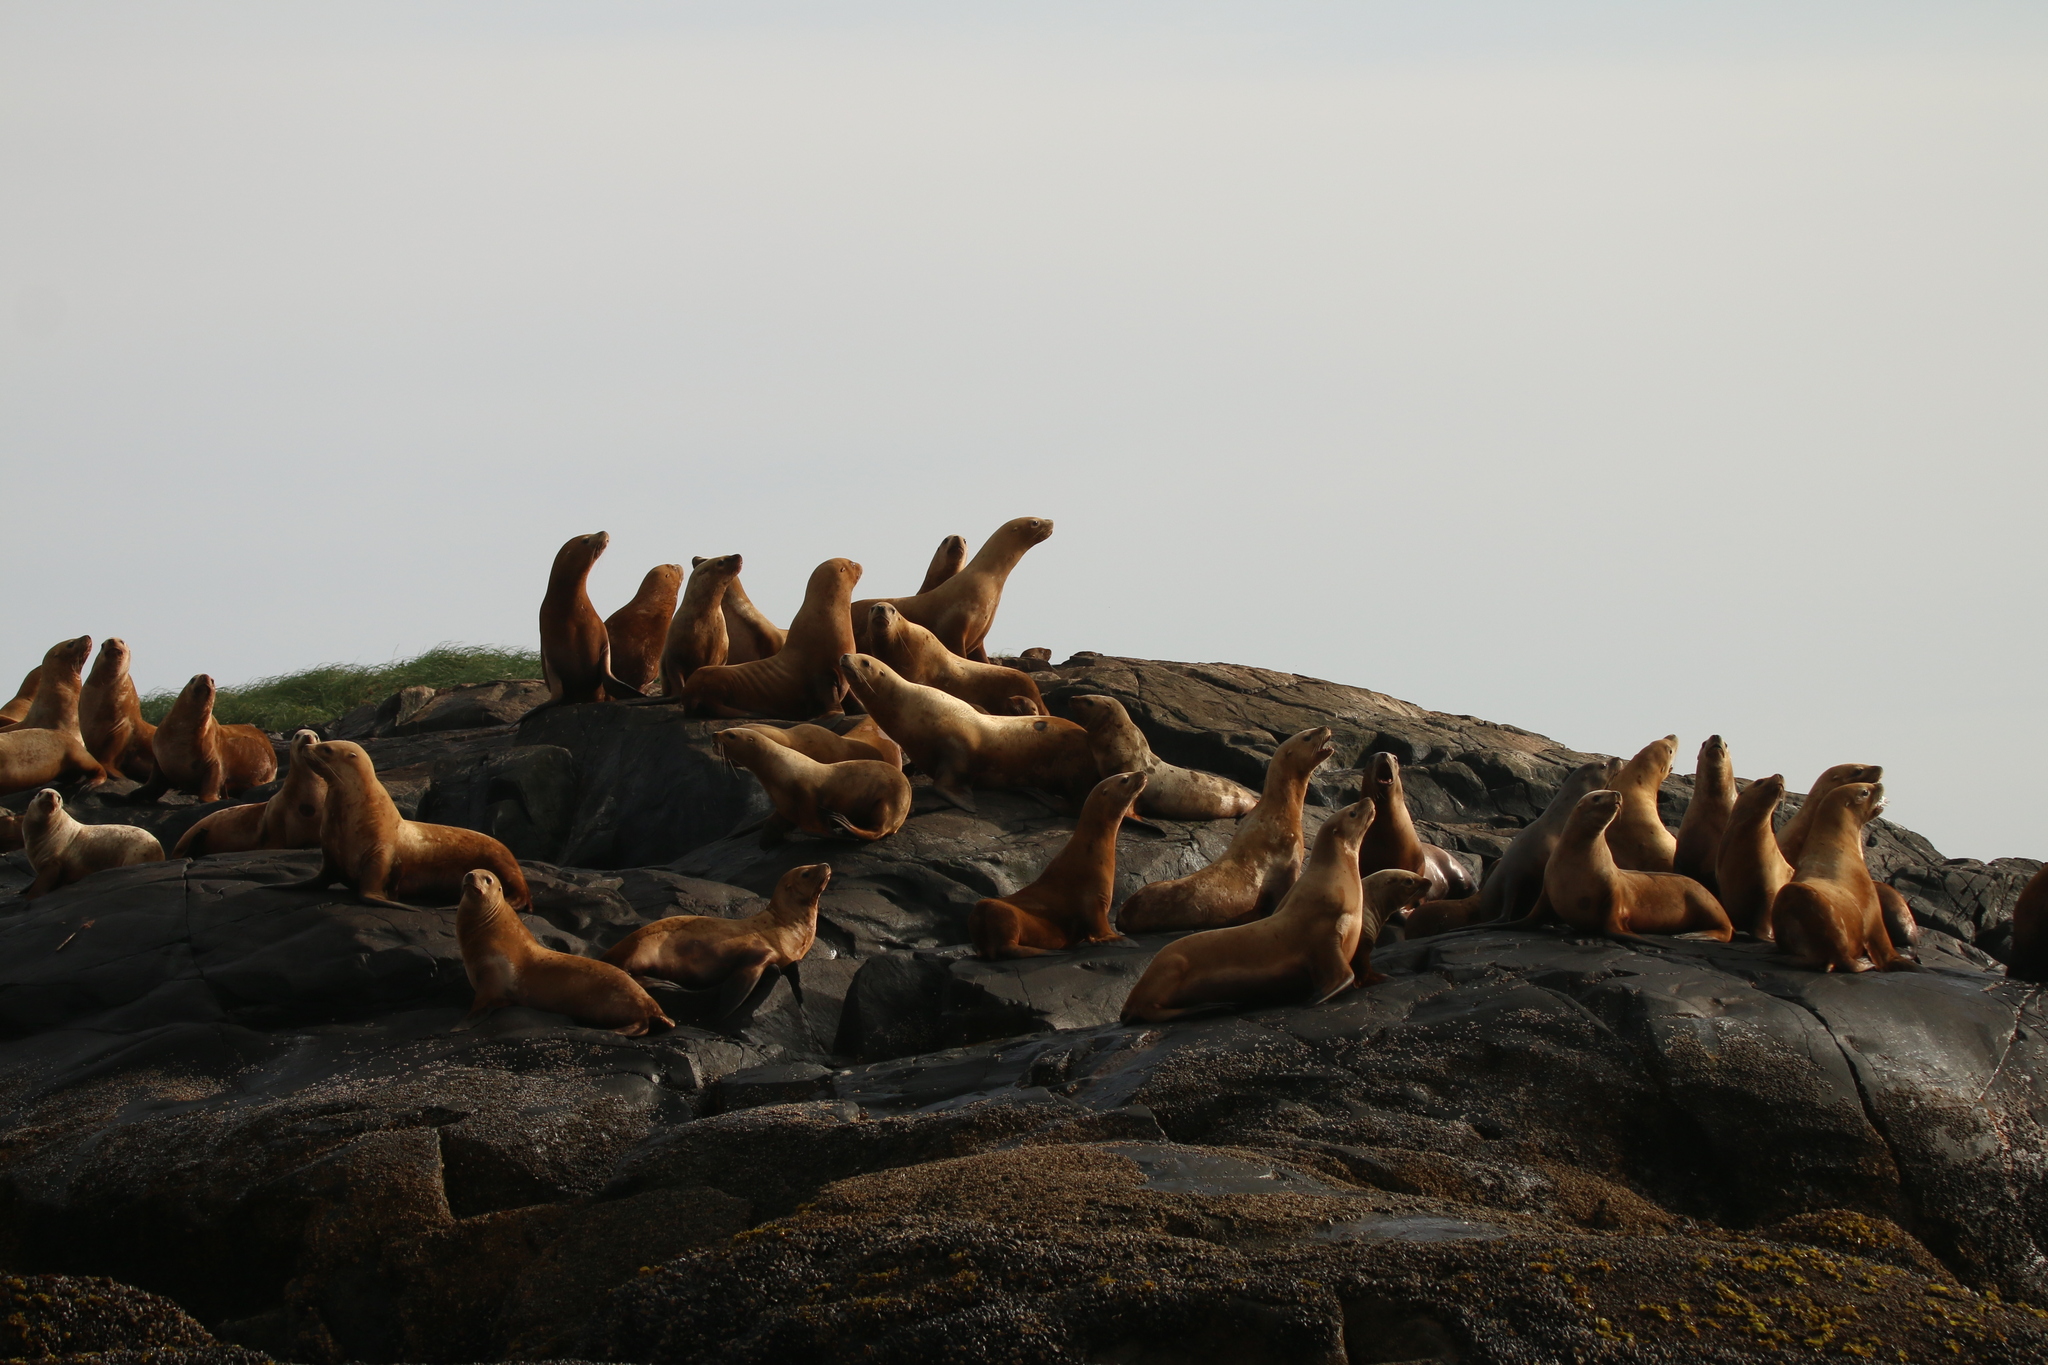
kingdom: Animalia
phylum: Chordata
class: Mammalia
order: Carnivora
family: Otariidae
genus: Eumetopias
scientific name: Eumetopias jubatus
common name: Steller sea lion
